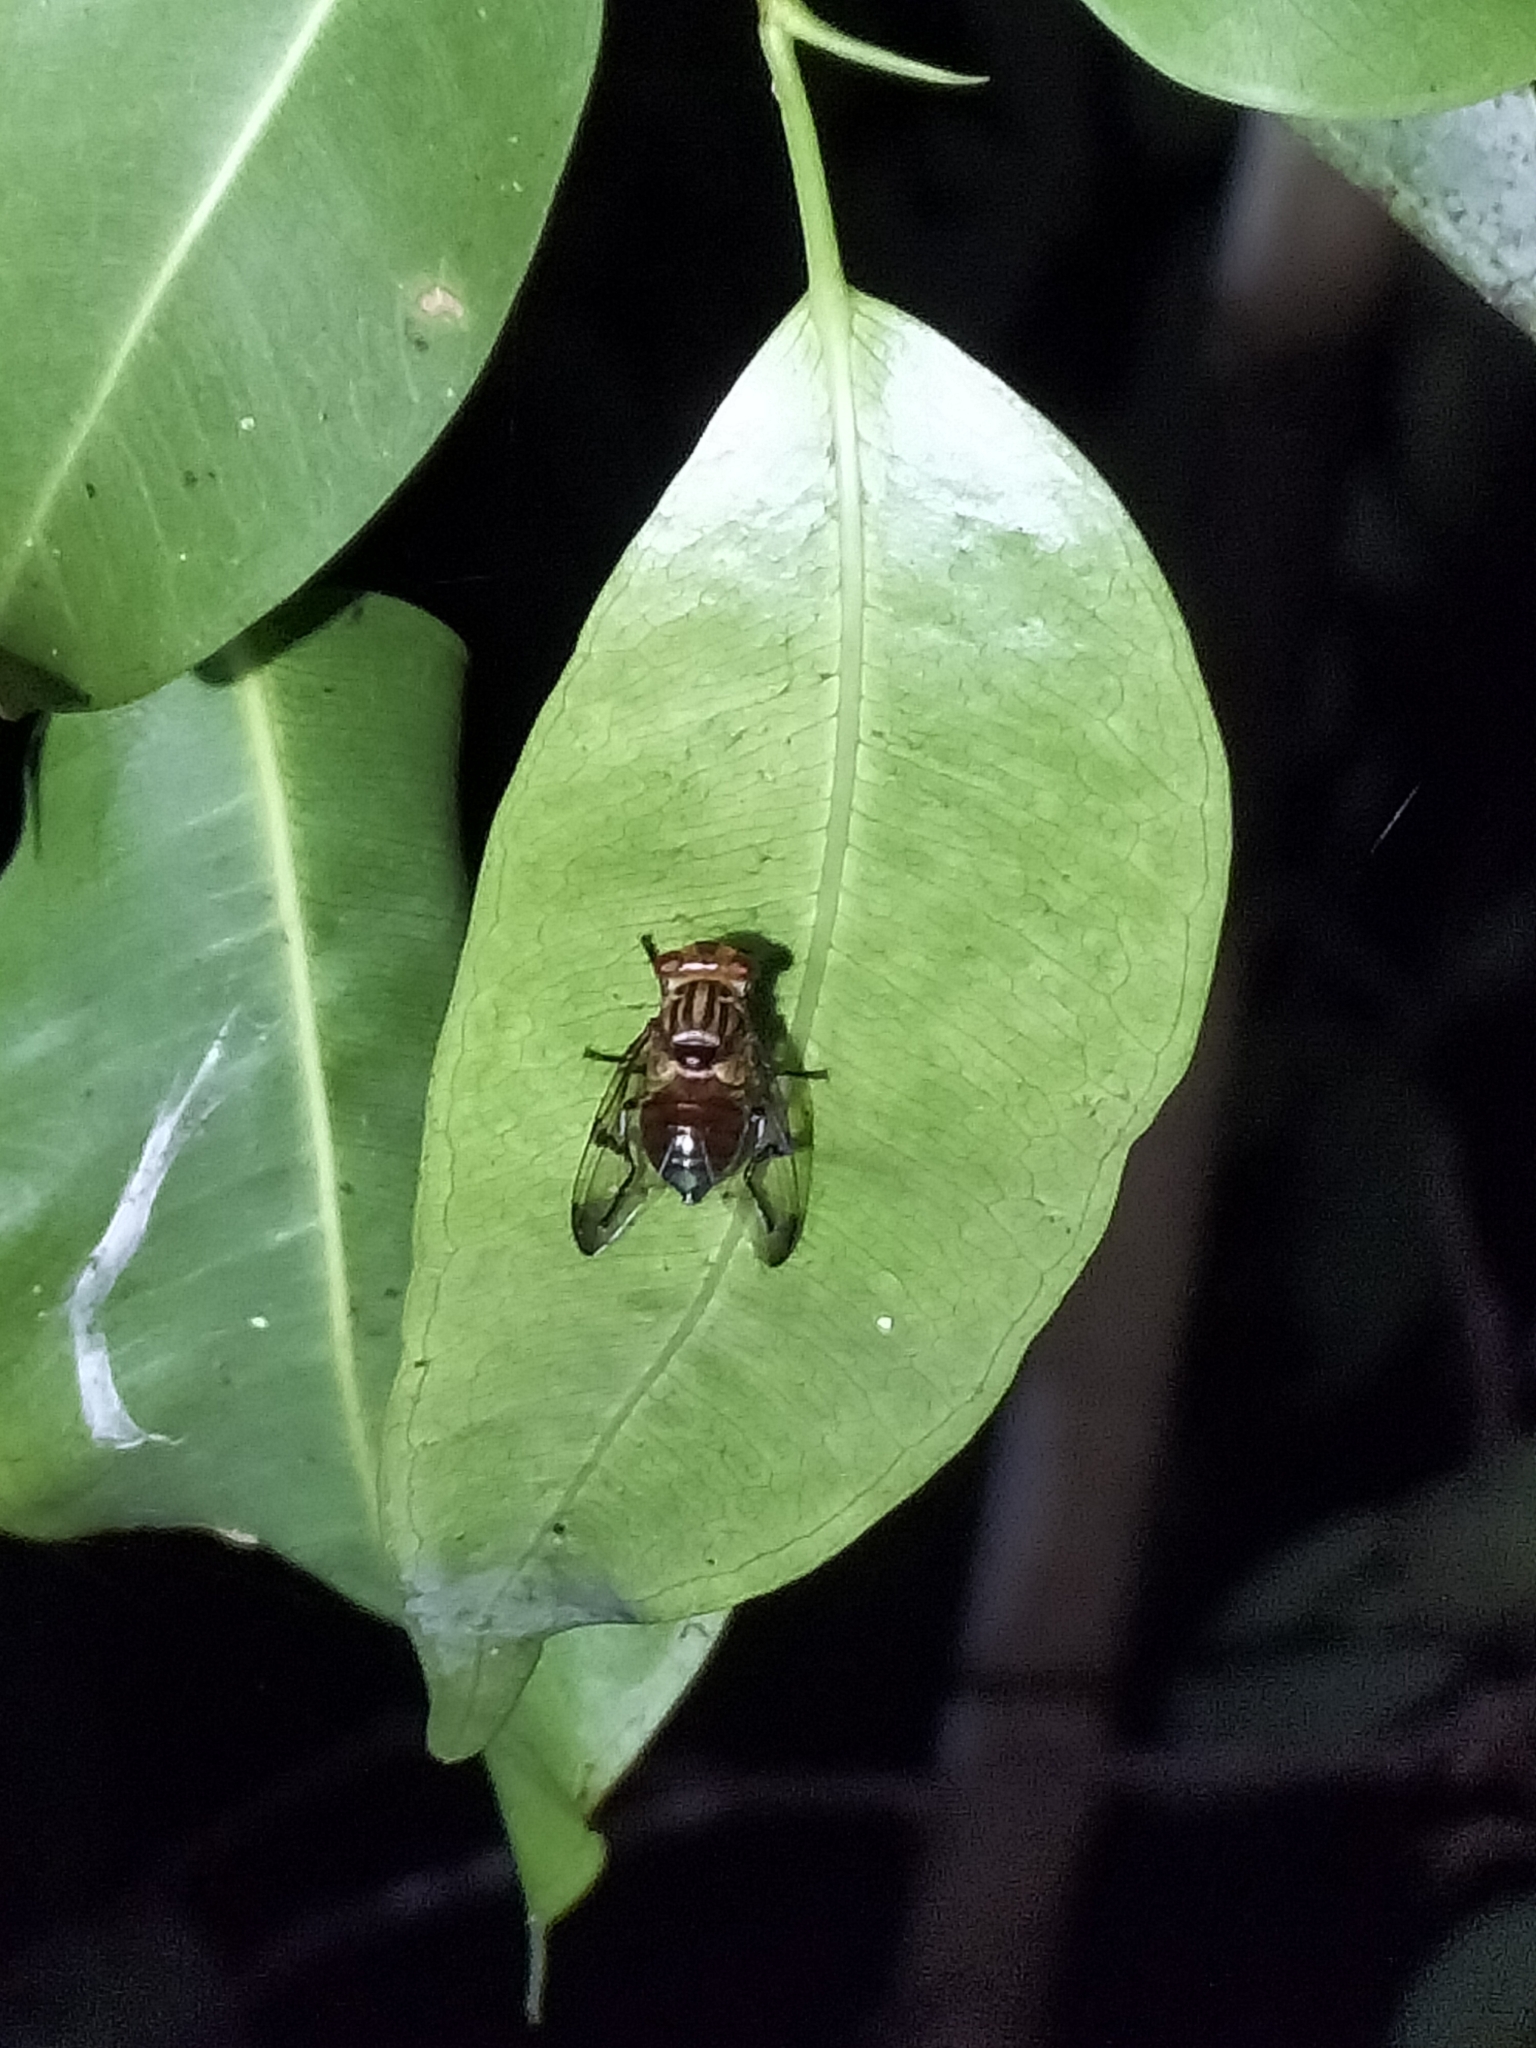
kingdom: Animalia
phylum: Arthropoda
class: Insecta
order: Diptera
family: Platystomatidae
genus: Achias
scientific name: Achias kurandanus
